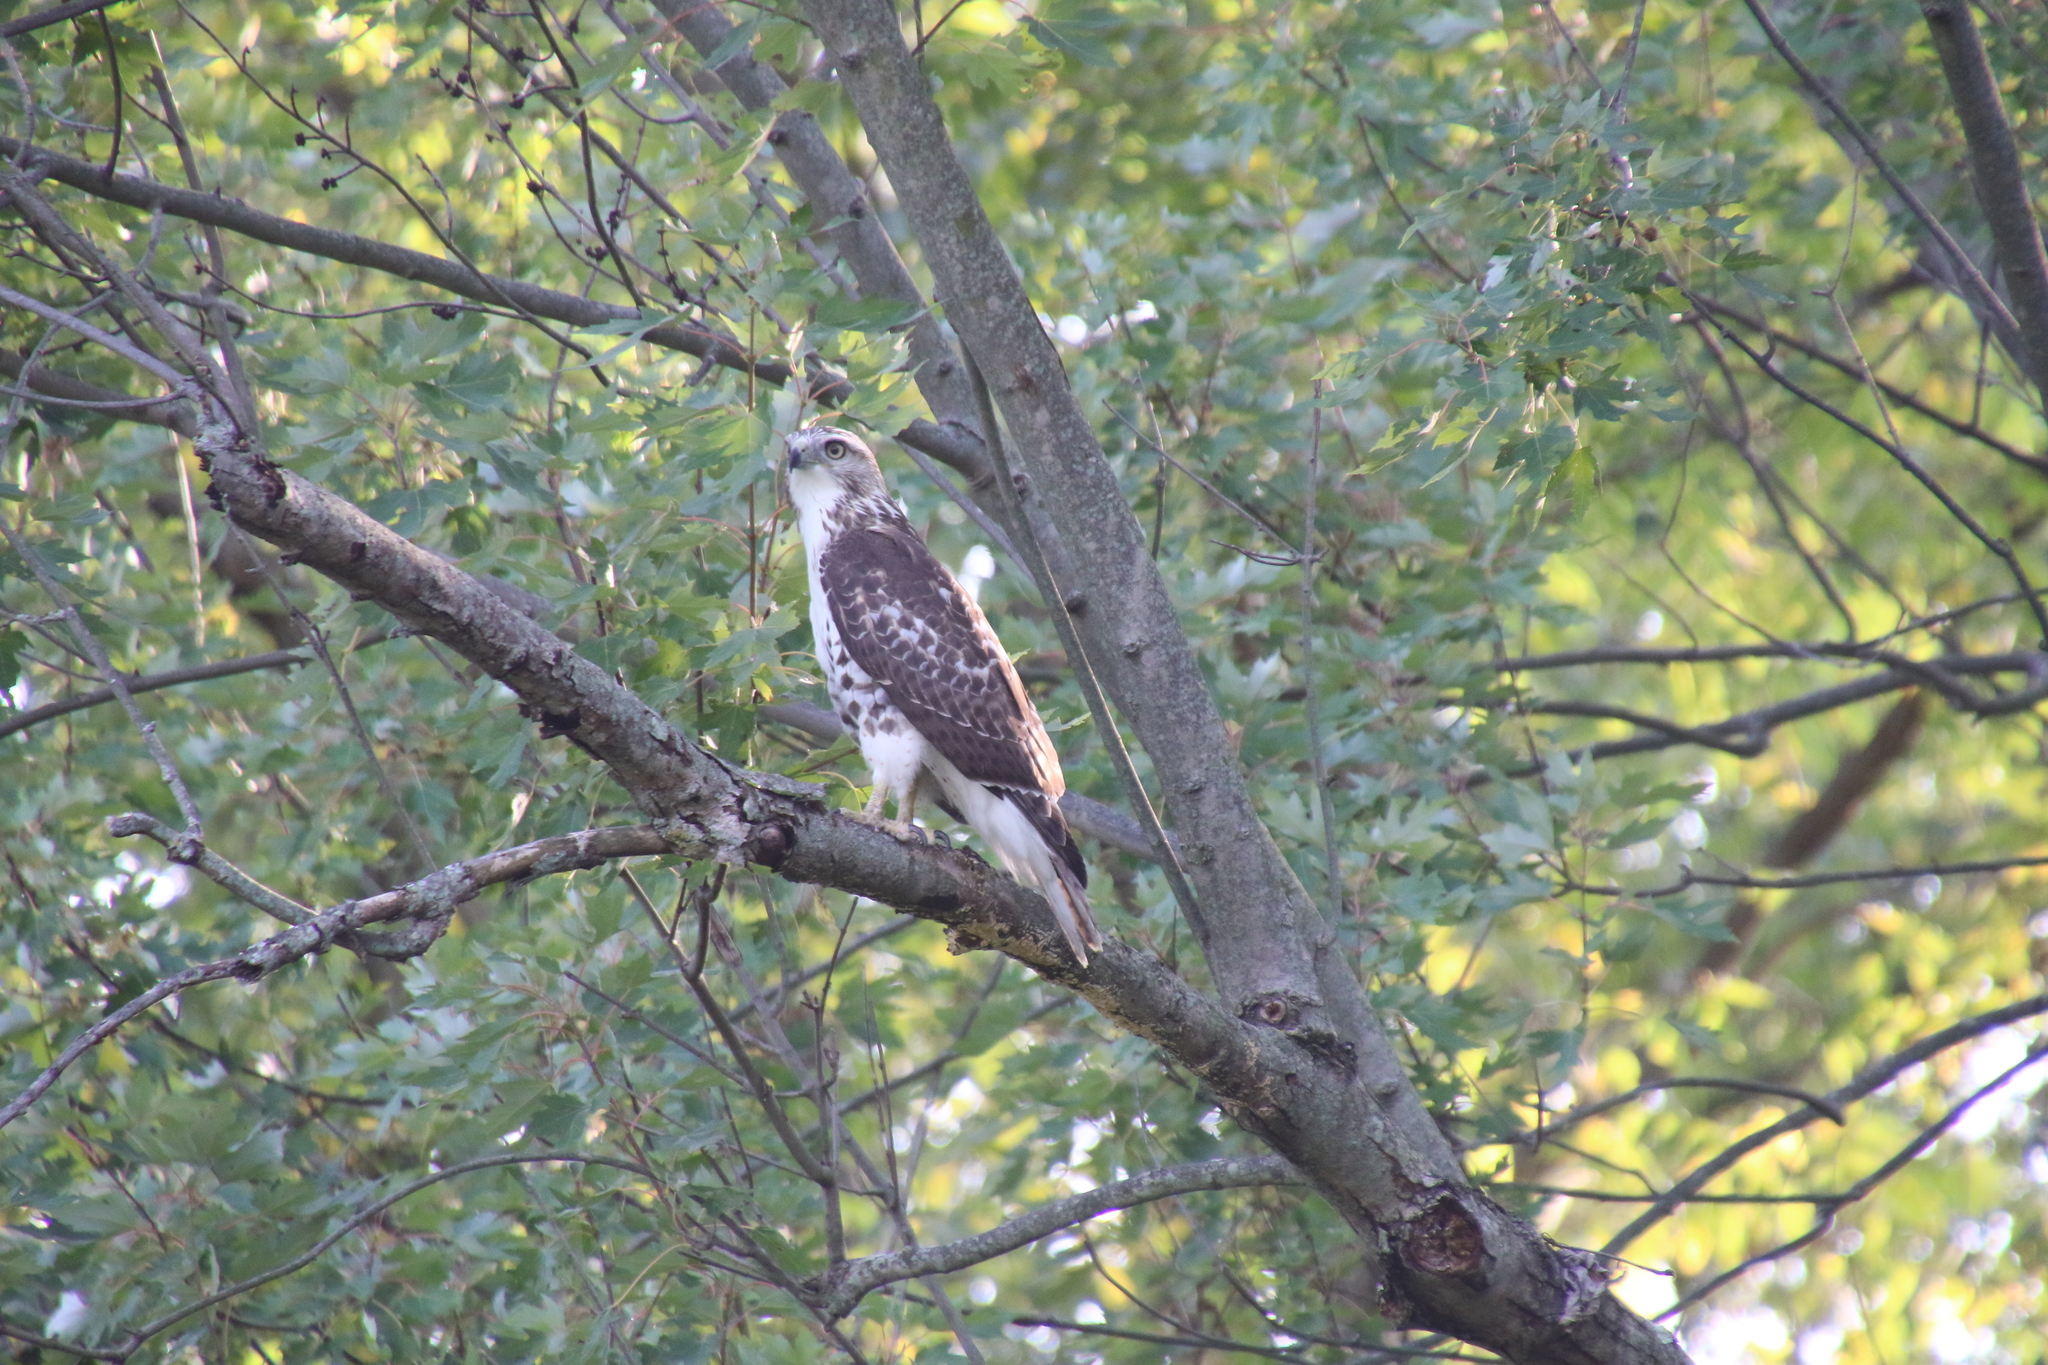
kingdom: Animalia
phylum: Chordata
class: Aves
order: Accipitriformes
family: Accipitridae
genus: Buteo
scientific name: Buteo jamaicensis
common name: Red-tailed hawk
